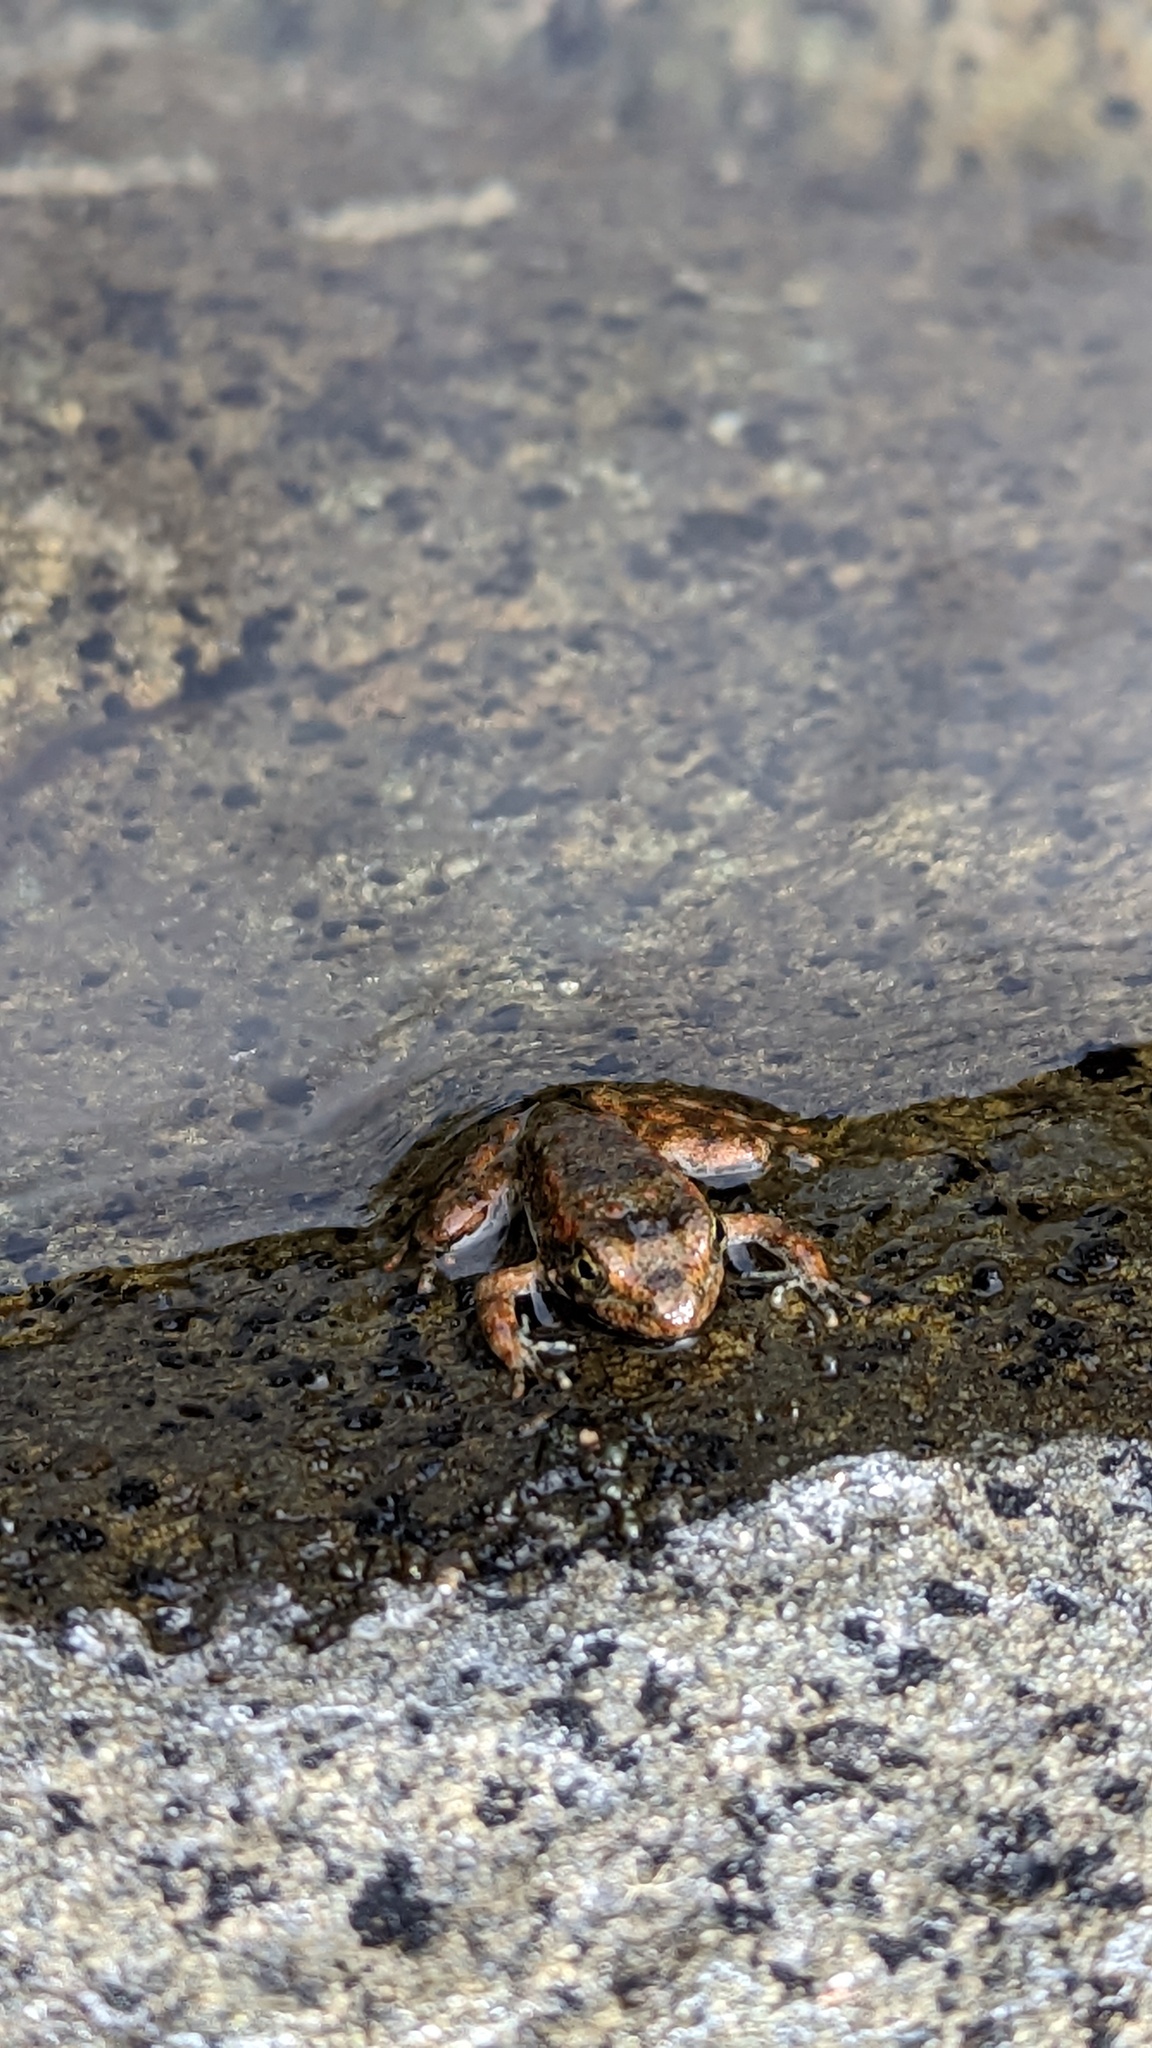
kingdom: Animalia
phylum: Chordata
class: Amphibia
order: Anura
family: Ranidae
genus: Rana
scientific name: Rana boylii
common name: Foothill yellow-legged frog
